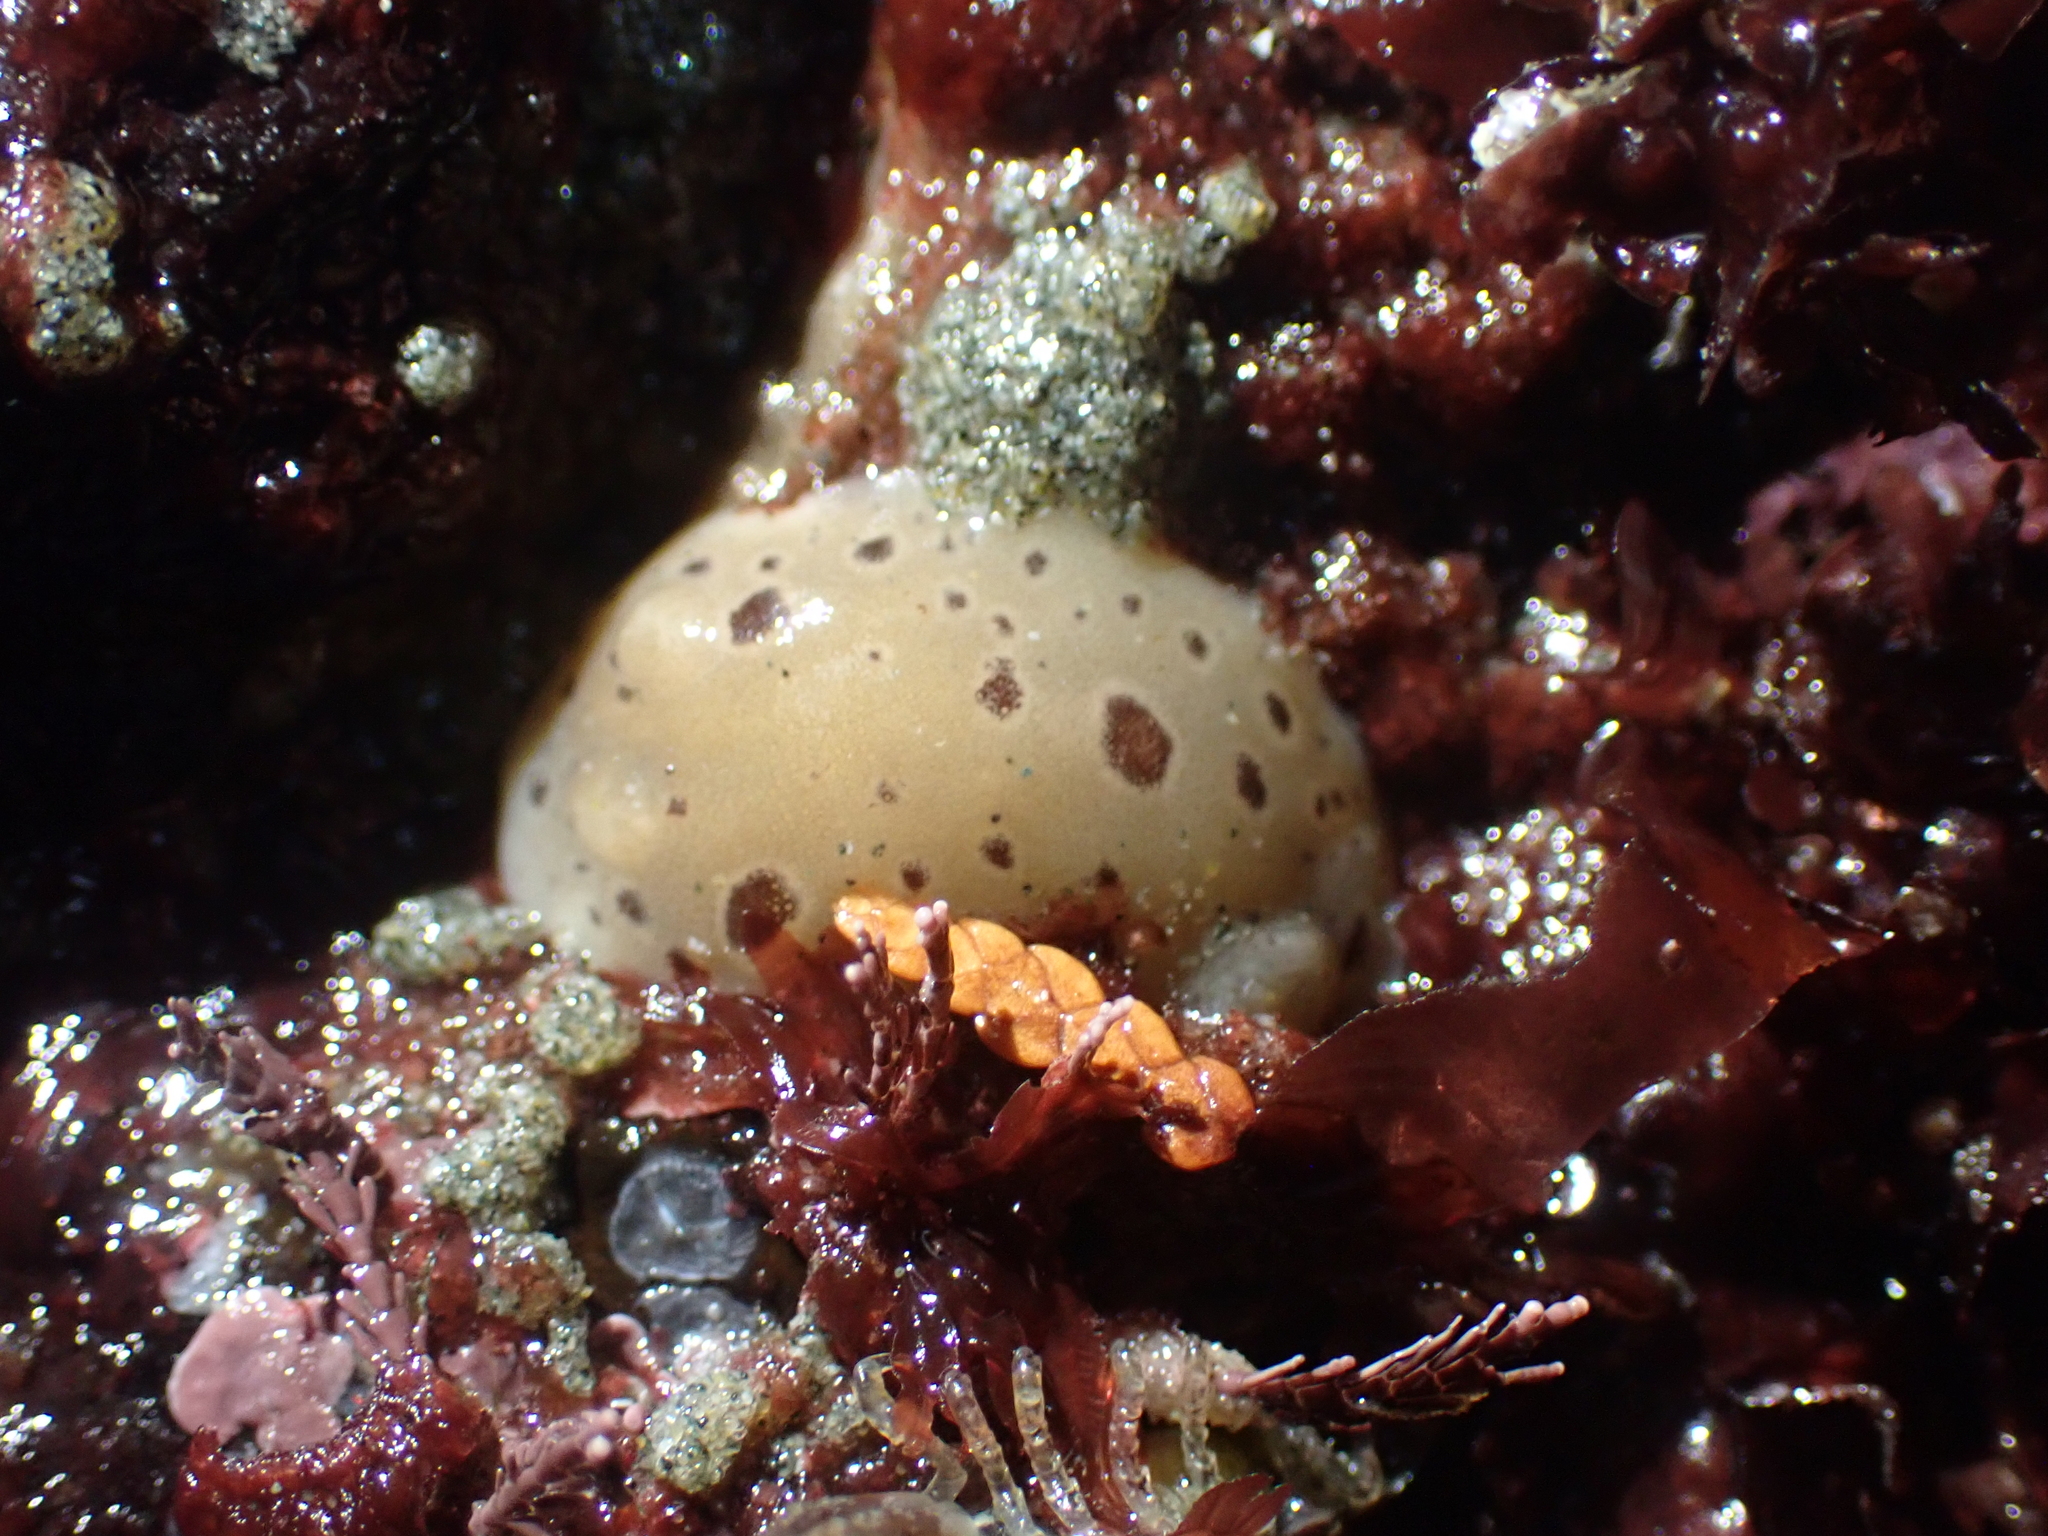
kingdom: Animalia
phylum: Mollusca
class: Gastropoda
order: Nudibranchia
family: Discodorididae
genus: Diaulula
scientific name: Diaulula odonoghuei
